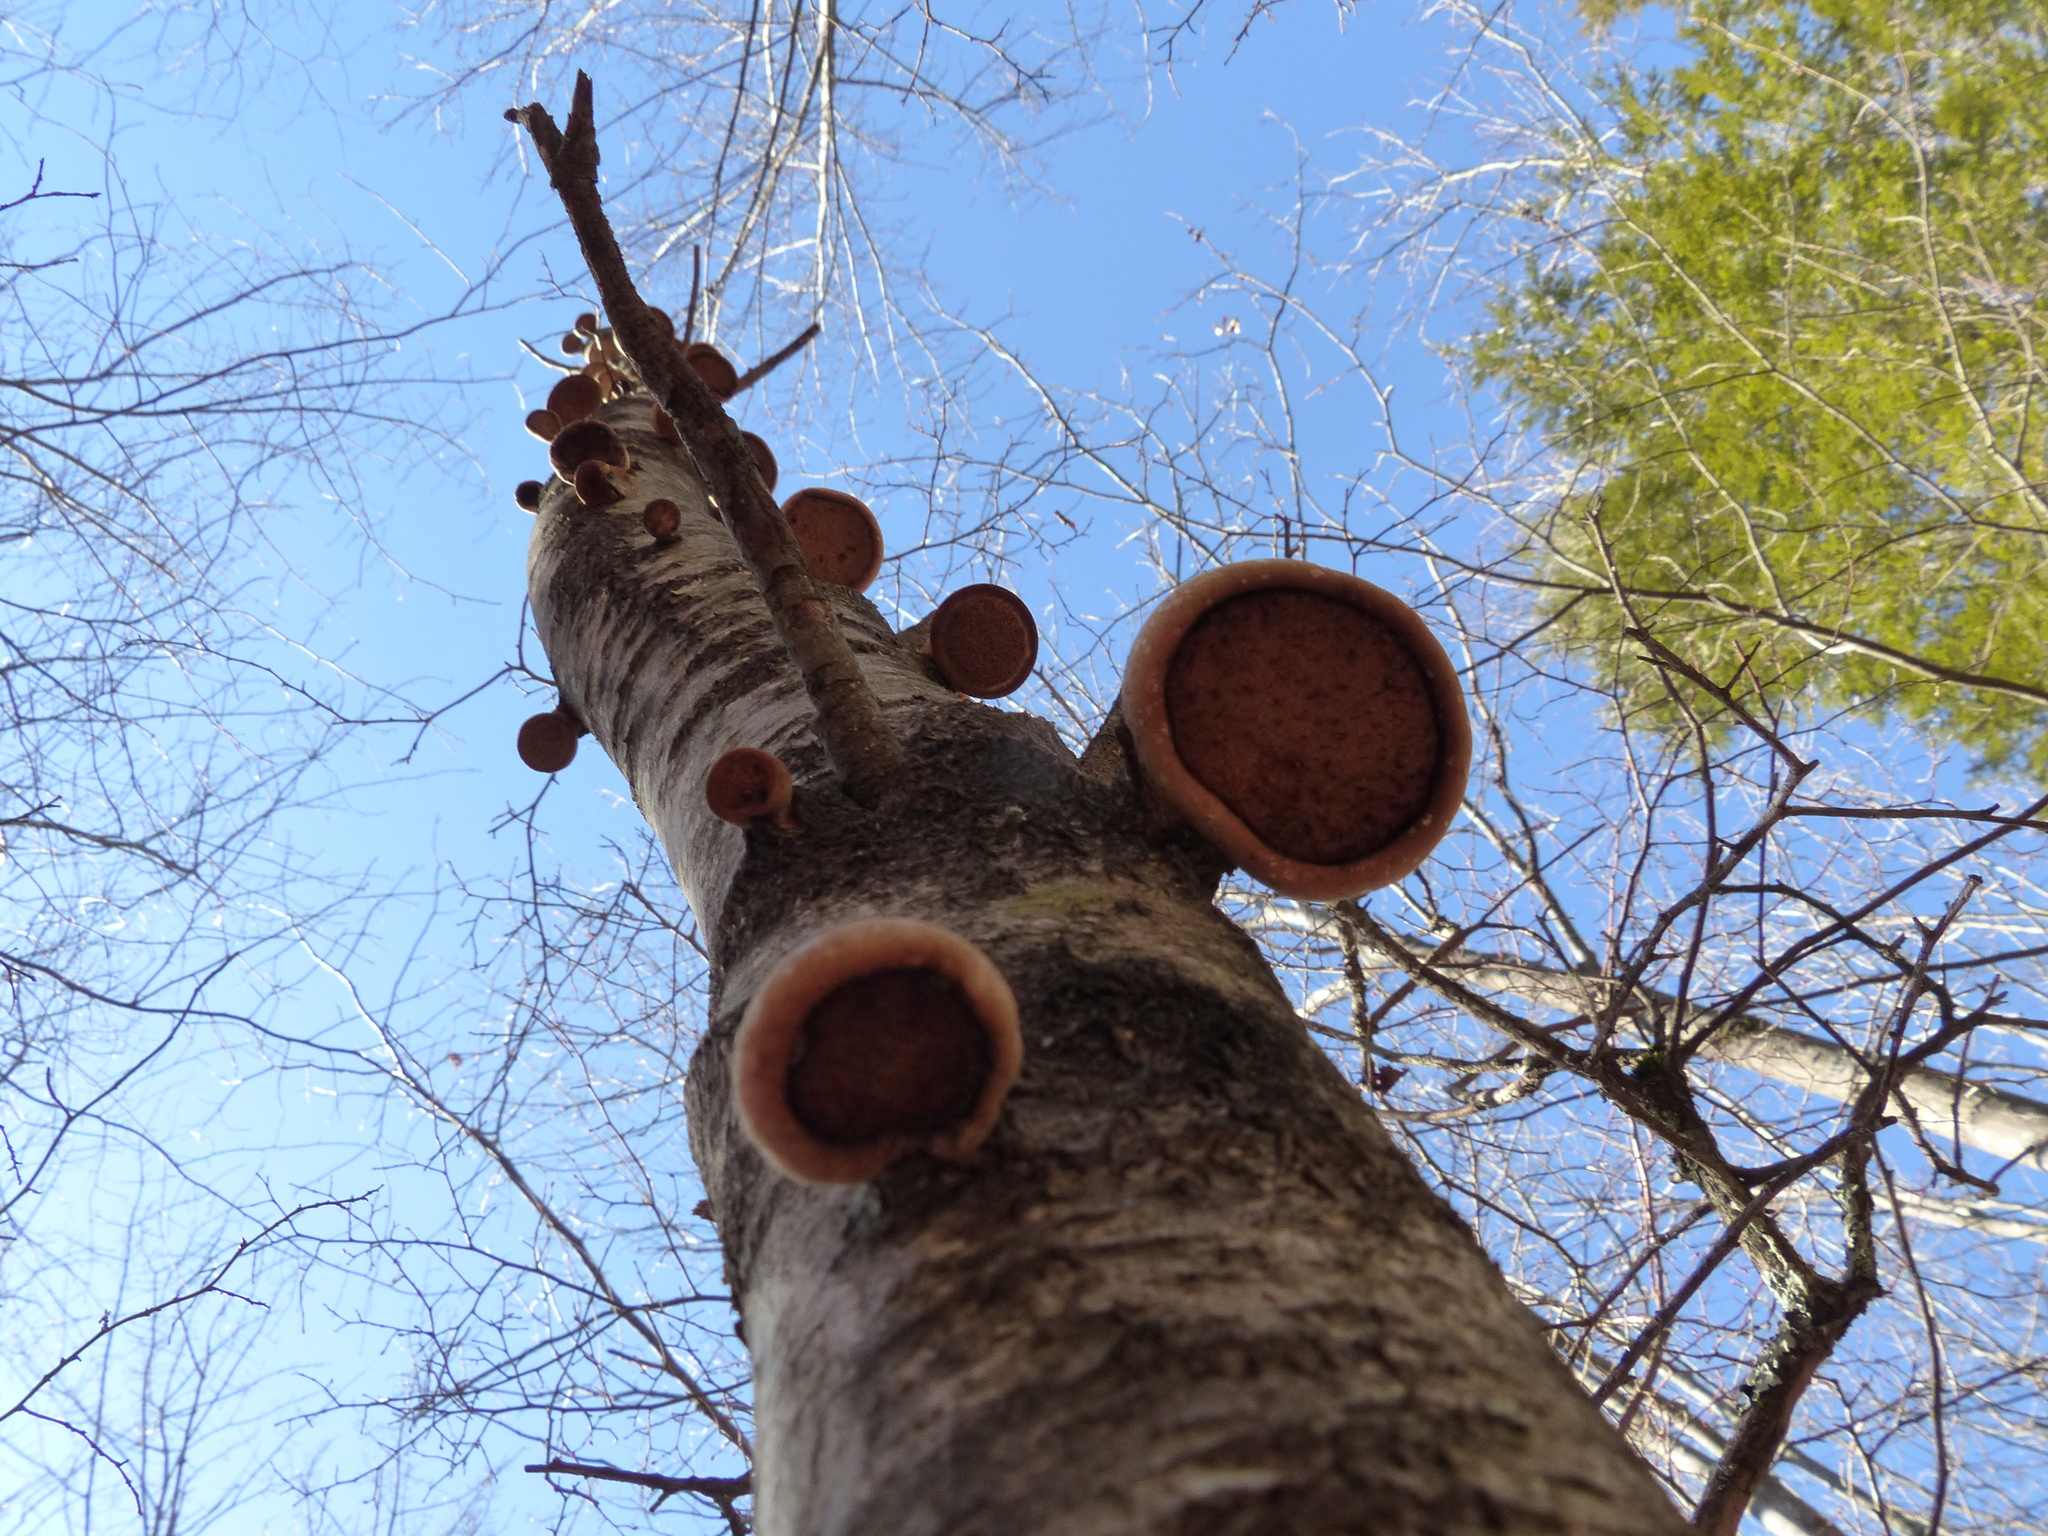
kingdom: Fungi
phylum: Basidiomycota
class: Agaricomycetes
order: Polyporales
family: Fomitopsidaceae
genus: Fomitopsis
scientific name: Fomitopsis betulina
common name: Birch polypore
